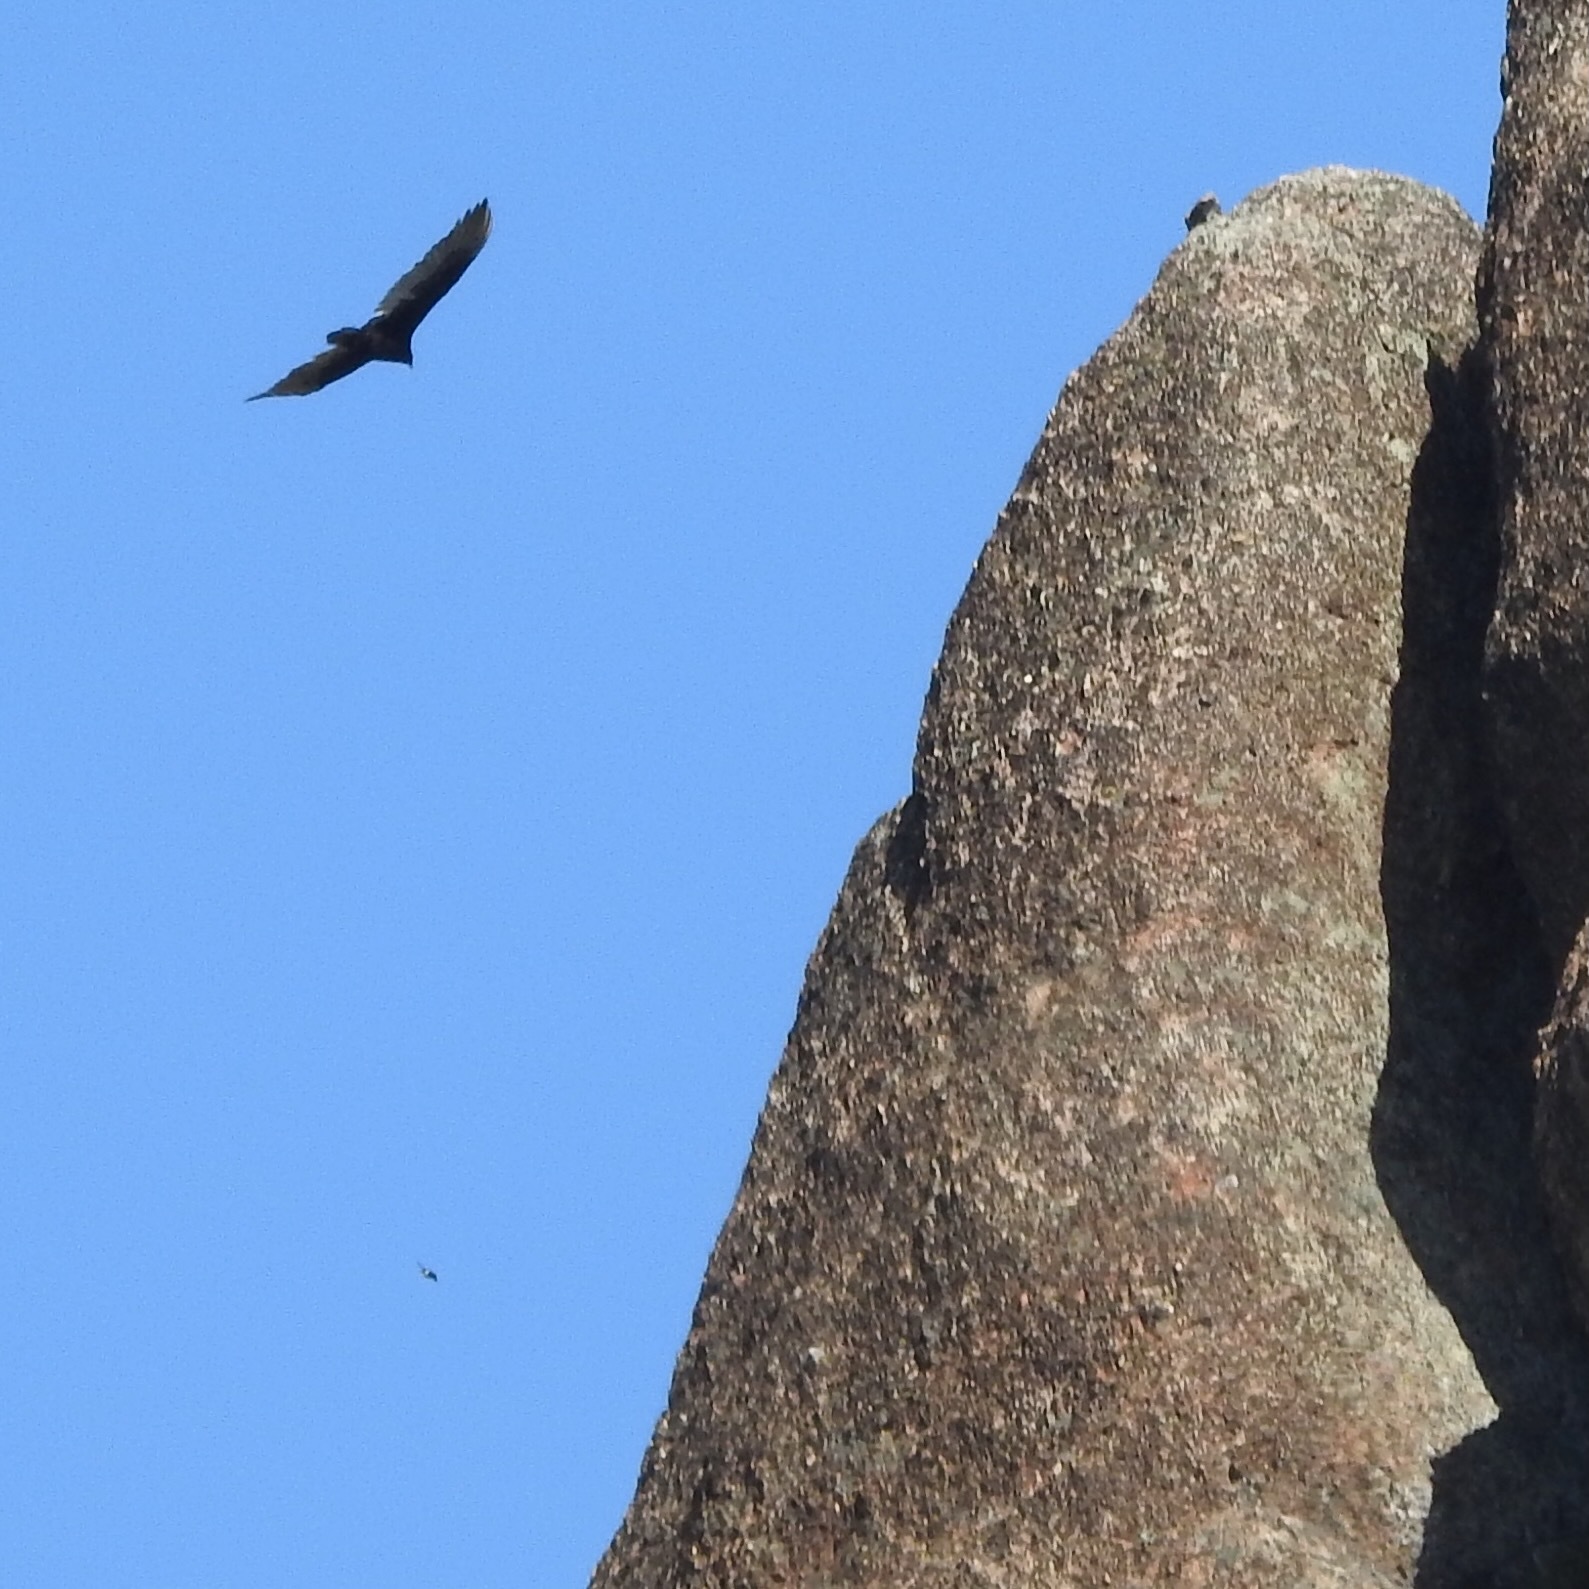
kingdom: Animalia
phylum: Chordata
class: Aves
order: Accipitriformes
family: Cathartidae
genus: Cathartes
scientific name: Cathartes aura
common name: Turkey vulture
